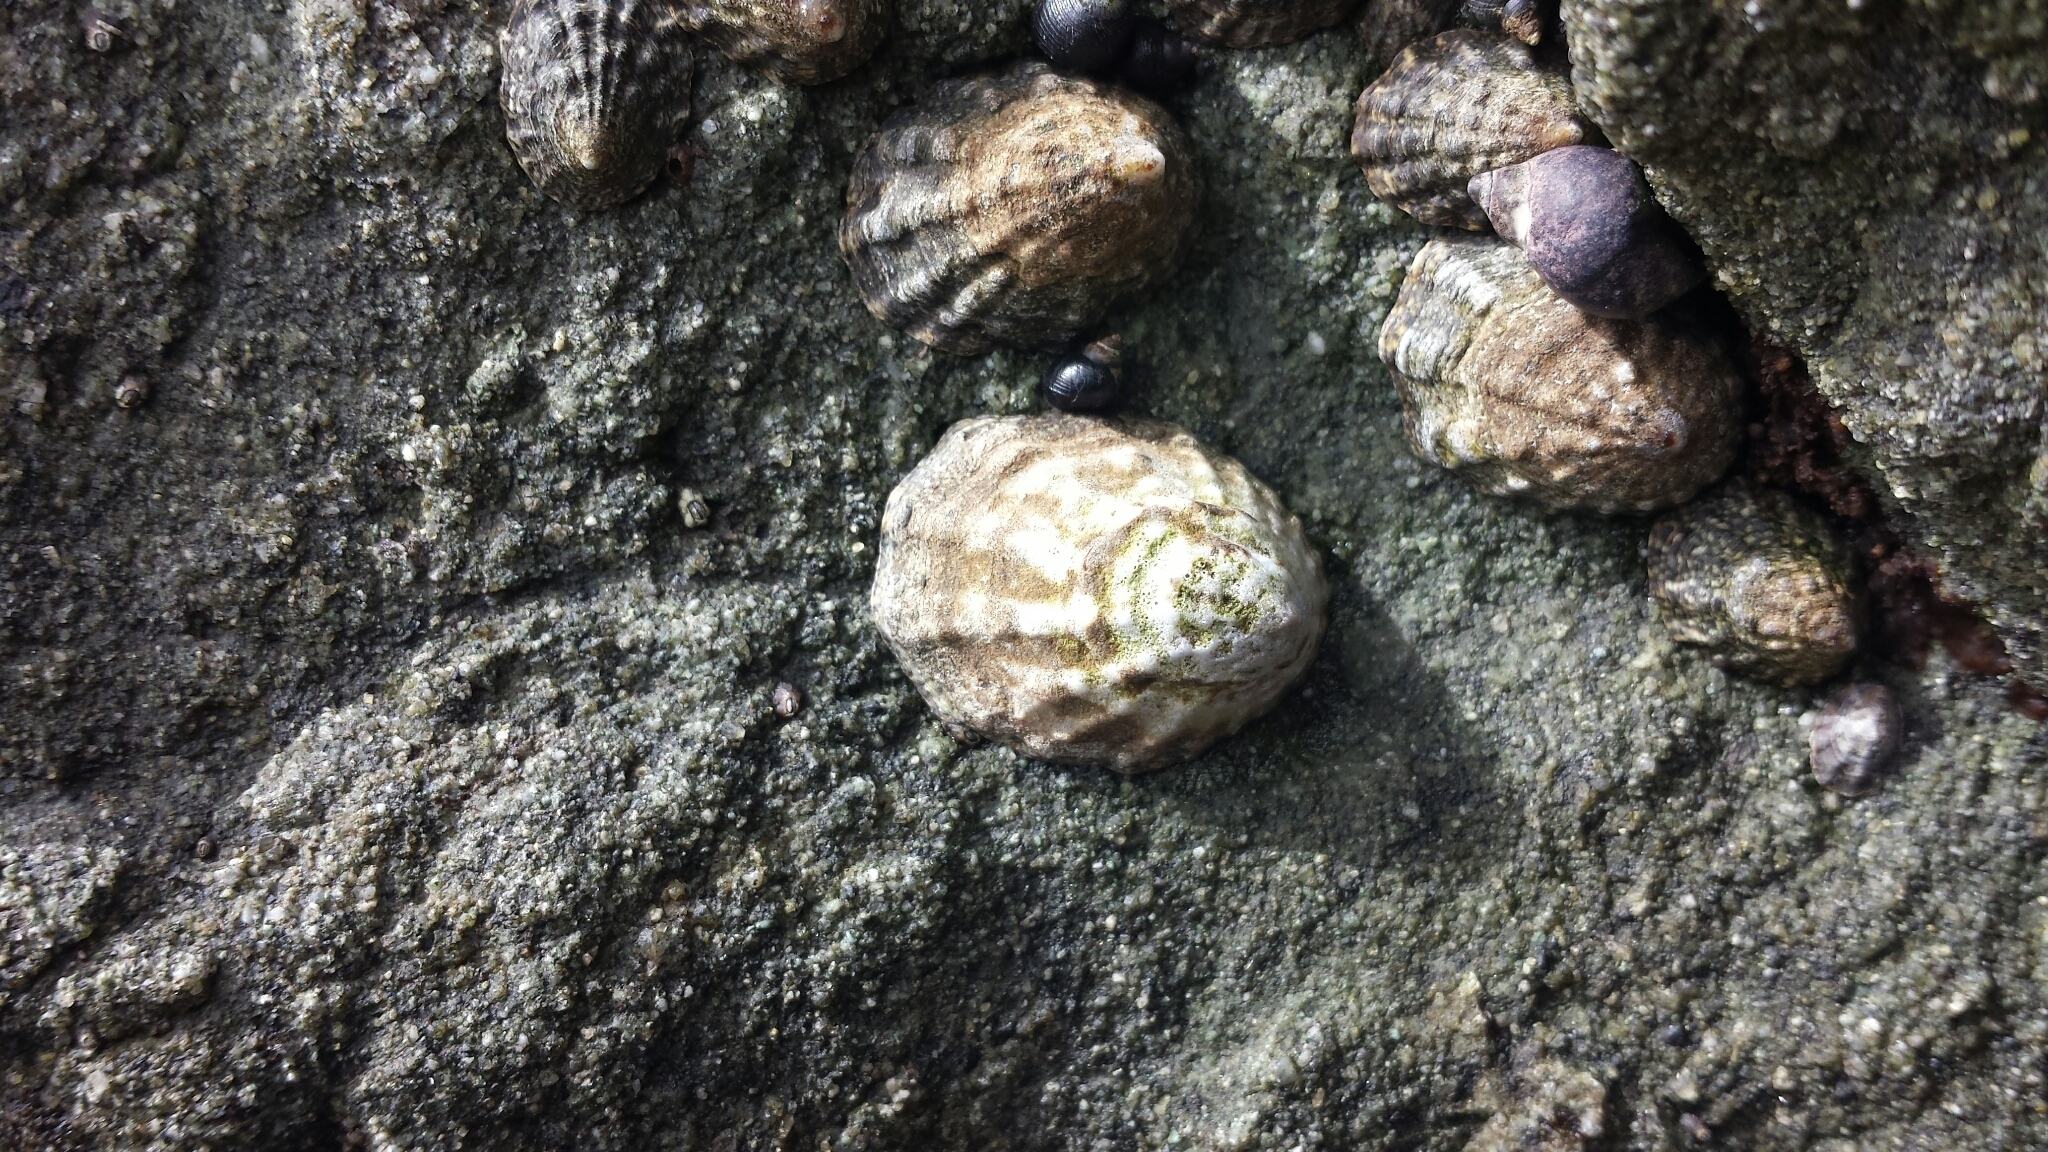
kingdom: Animalia
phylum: Mollusca
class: Gastropoda
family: Lottiidae
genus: Lottia
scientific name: Lottia digitalis
